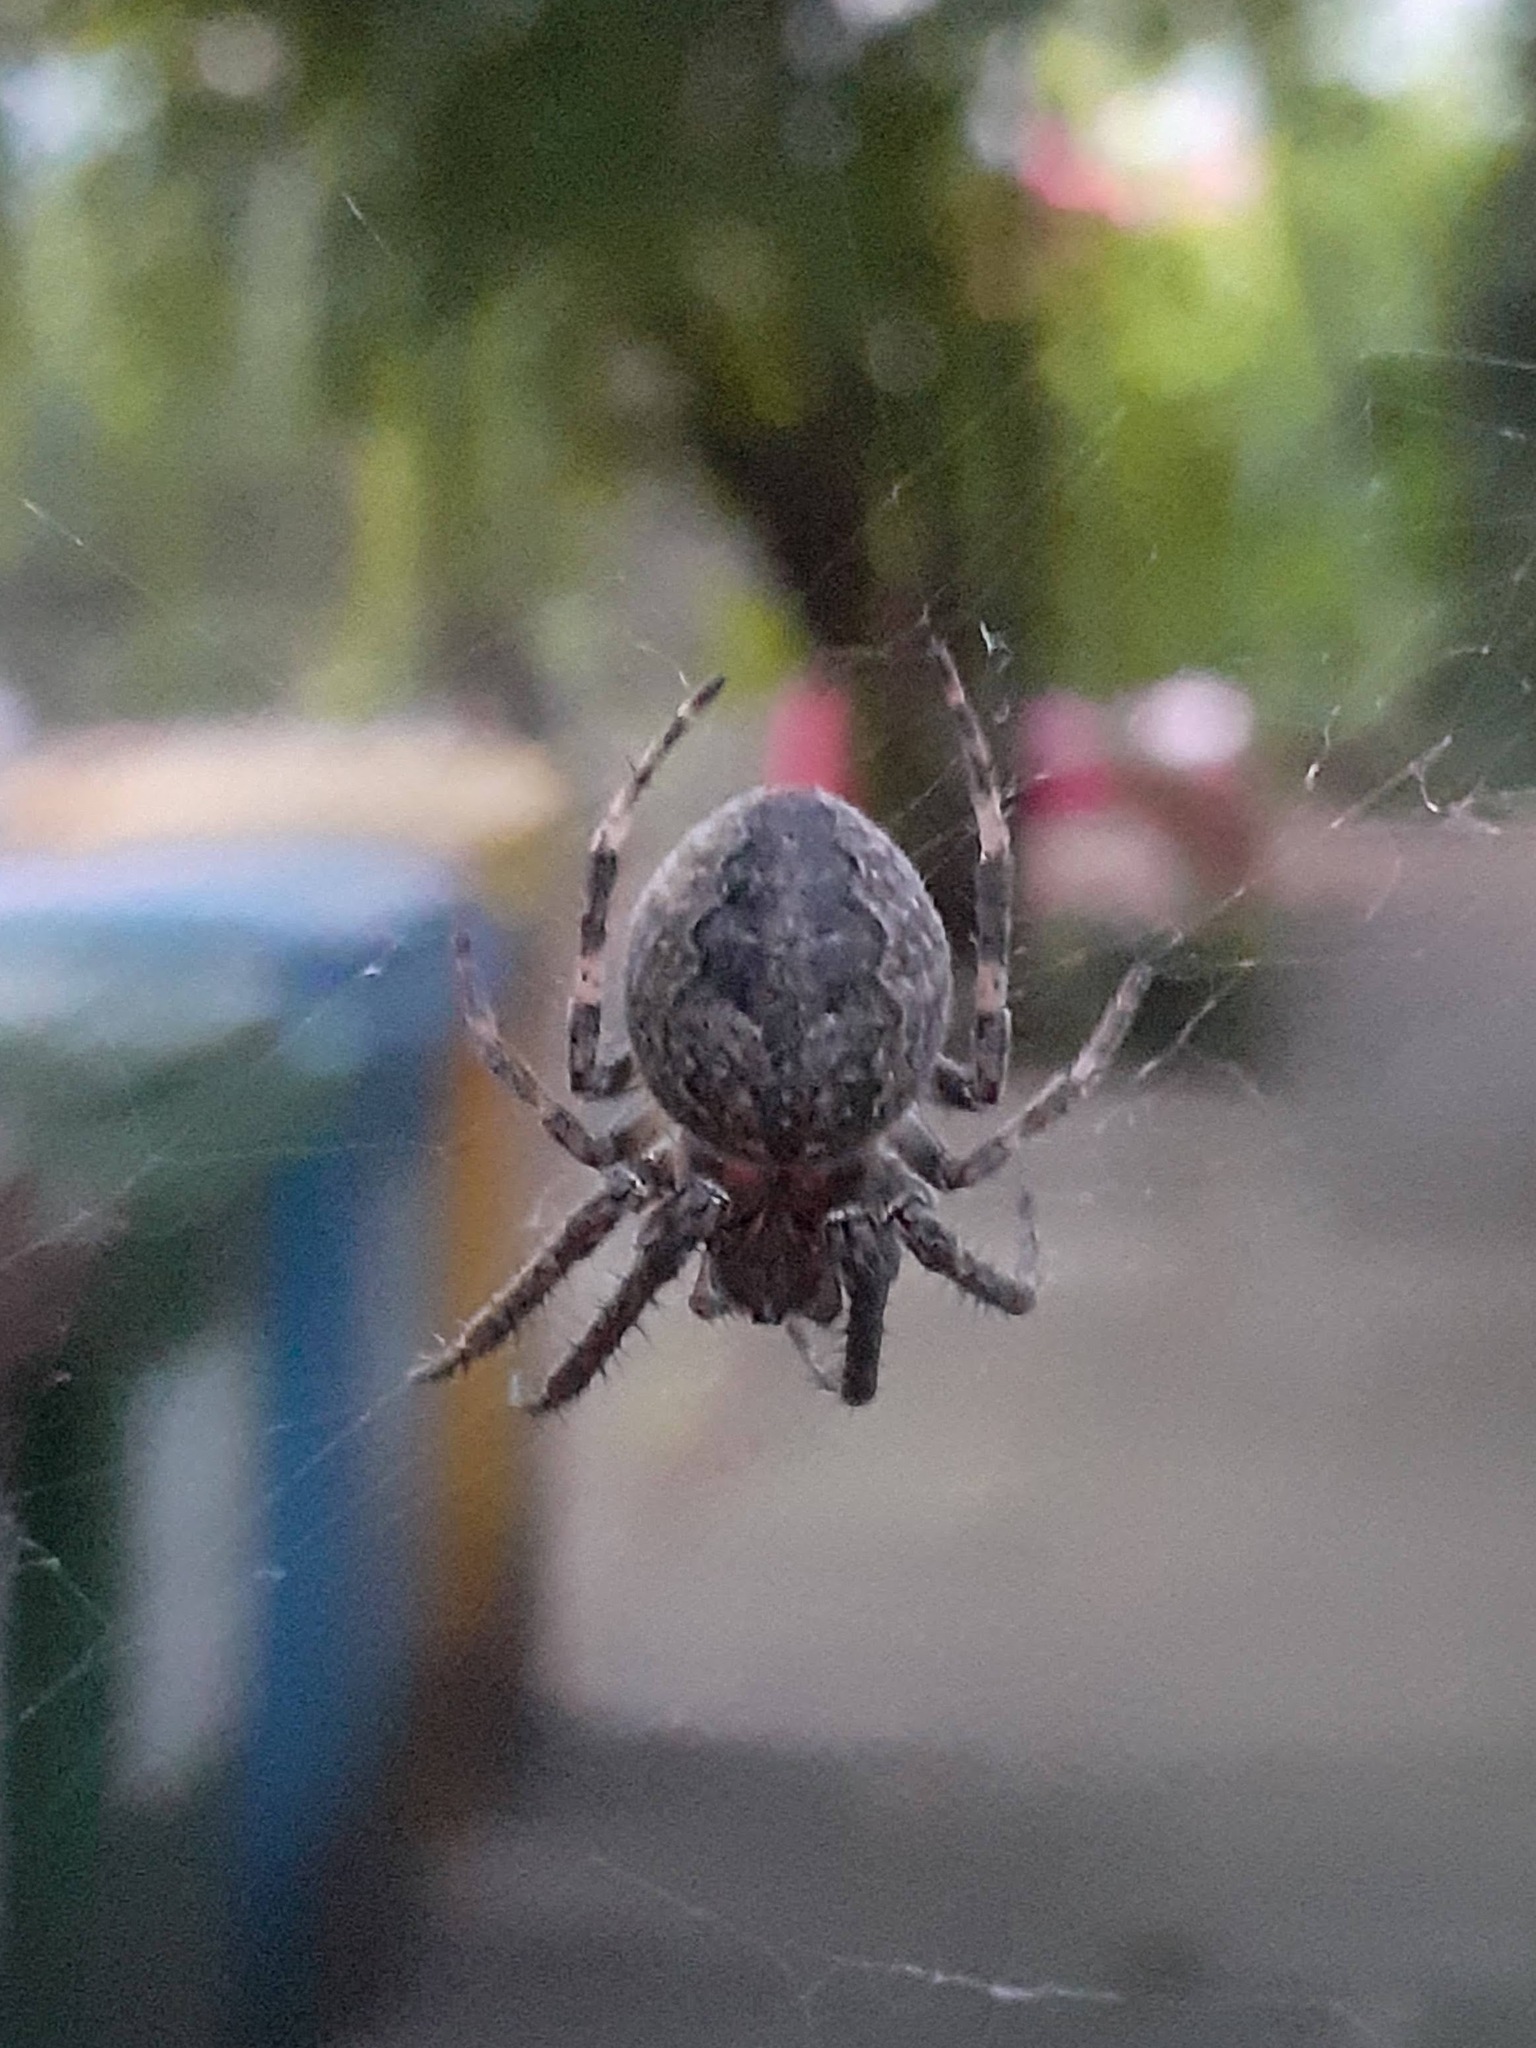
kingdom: Animalia
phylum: Arthropoda
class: Arachnida
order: Araneae
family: Araneidae
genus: Larinioides
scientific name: Larinioides ixobolus
